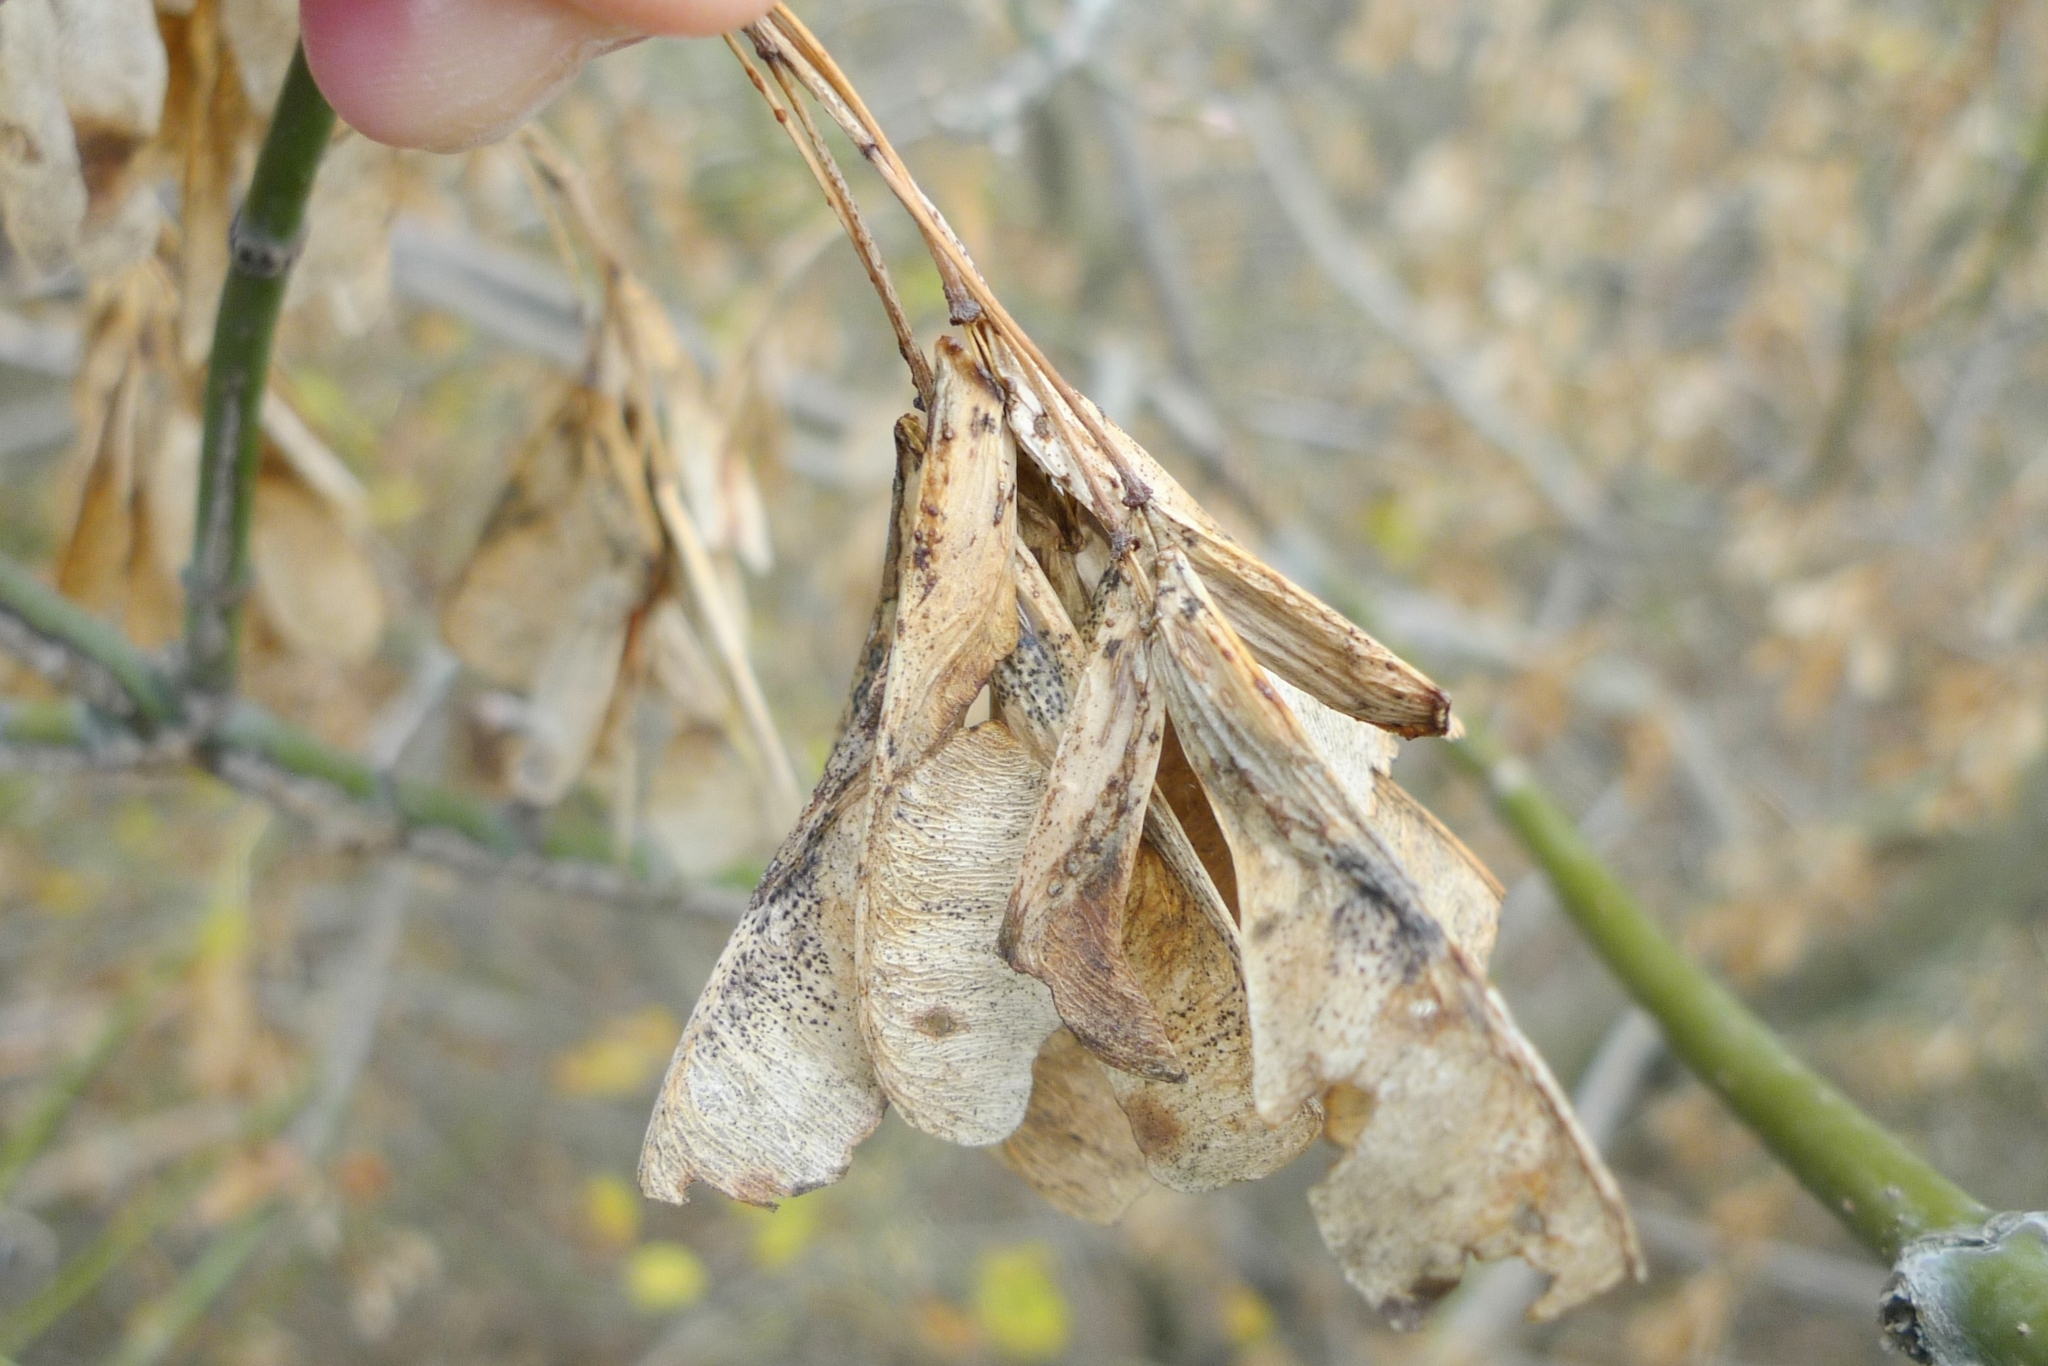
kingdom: Plantae
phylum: Tracheophyta
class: Magnoliopsida
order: Sapindales
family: Sapindaceae
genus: Acer
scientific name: Acer negundo
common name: Ashleaf maple
